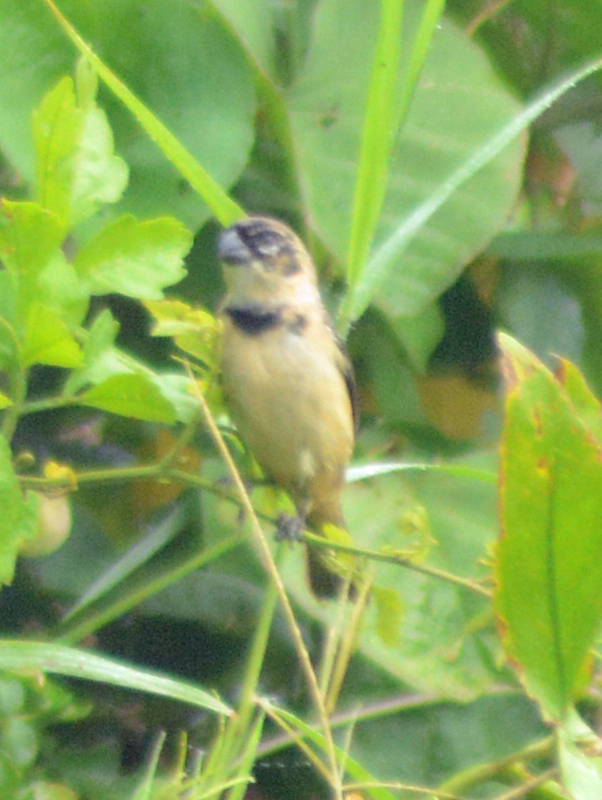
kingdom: Animalia
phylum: Chordata
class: Aves
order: Passeriformes
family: Thraupidae
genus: Sporophila
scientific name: Sporophila morelleti
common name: Morelet's seedeater
